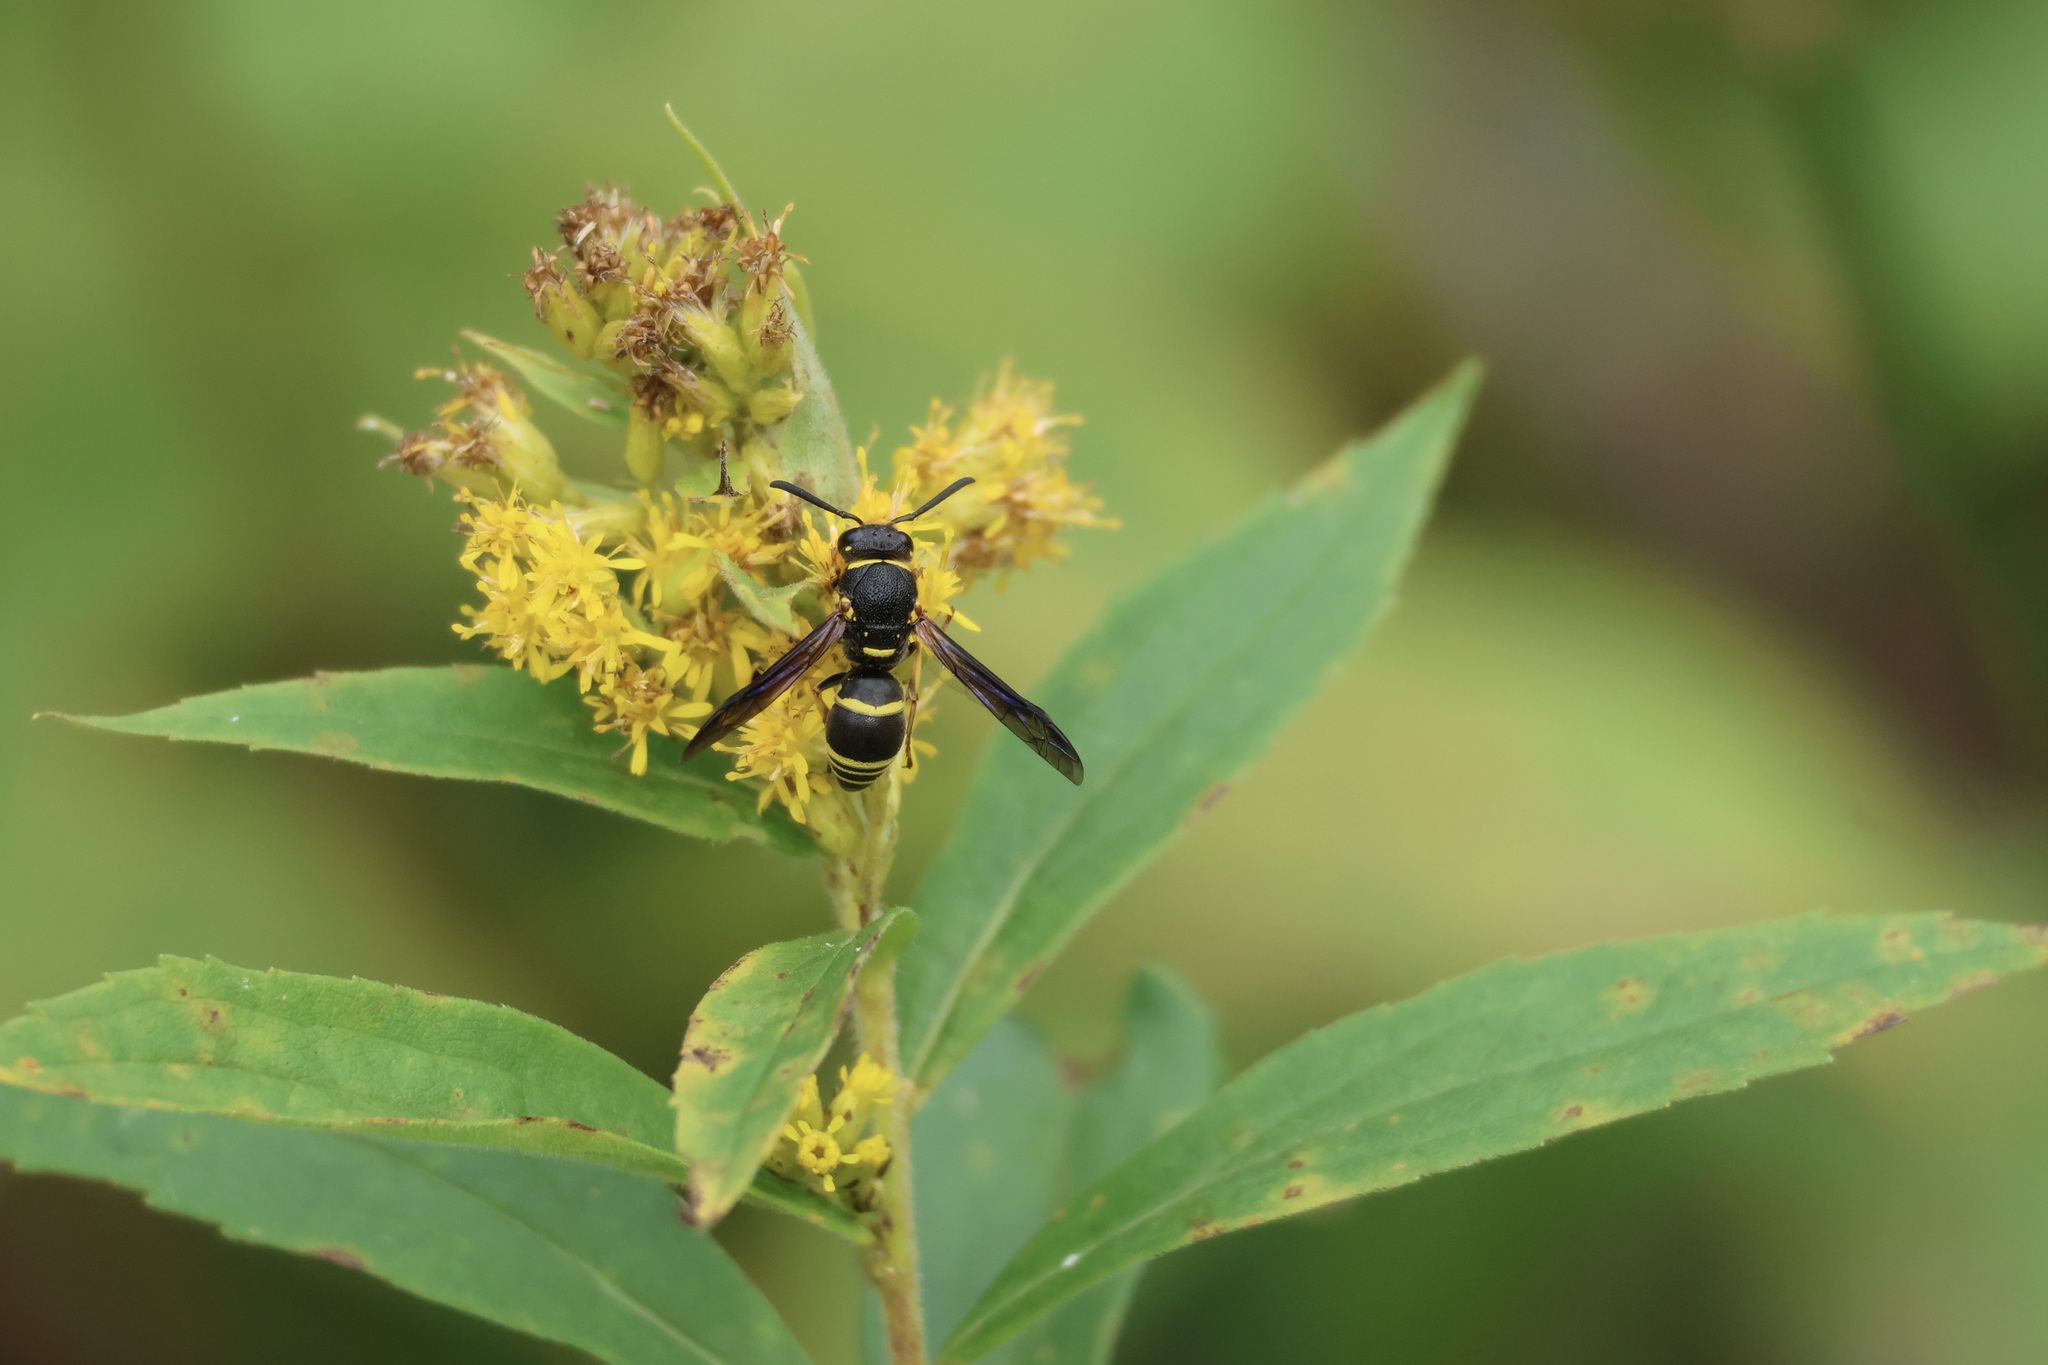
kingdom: Animalia
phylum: Arthropoda
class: Insecta
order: Hymenoptera
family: Eumenidae
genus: Euodynerus
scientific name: Euodynerus foraminatus
